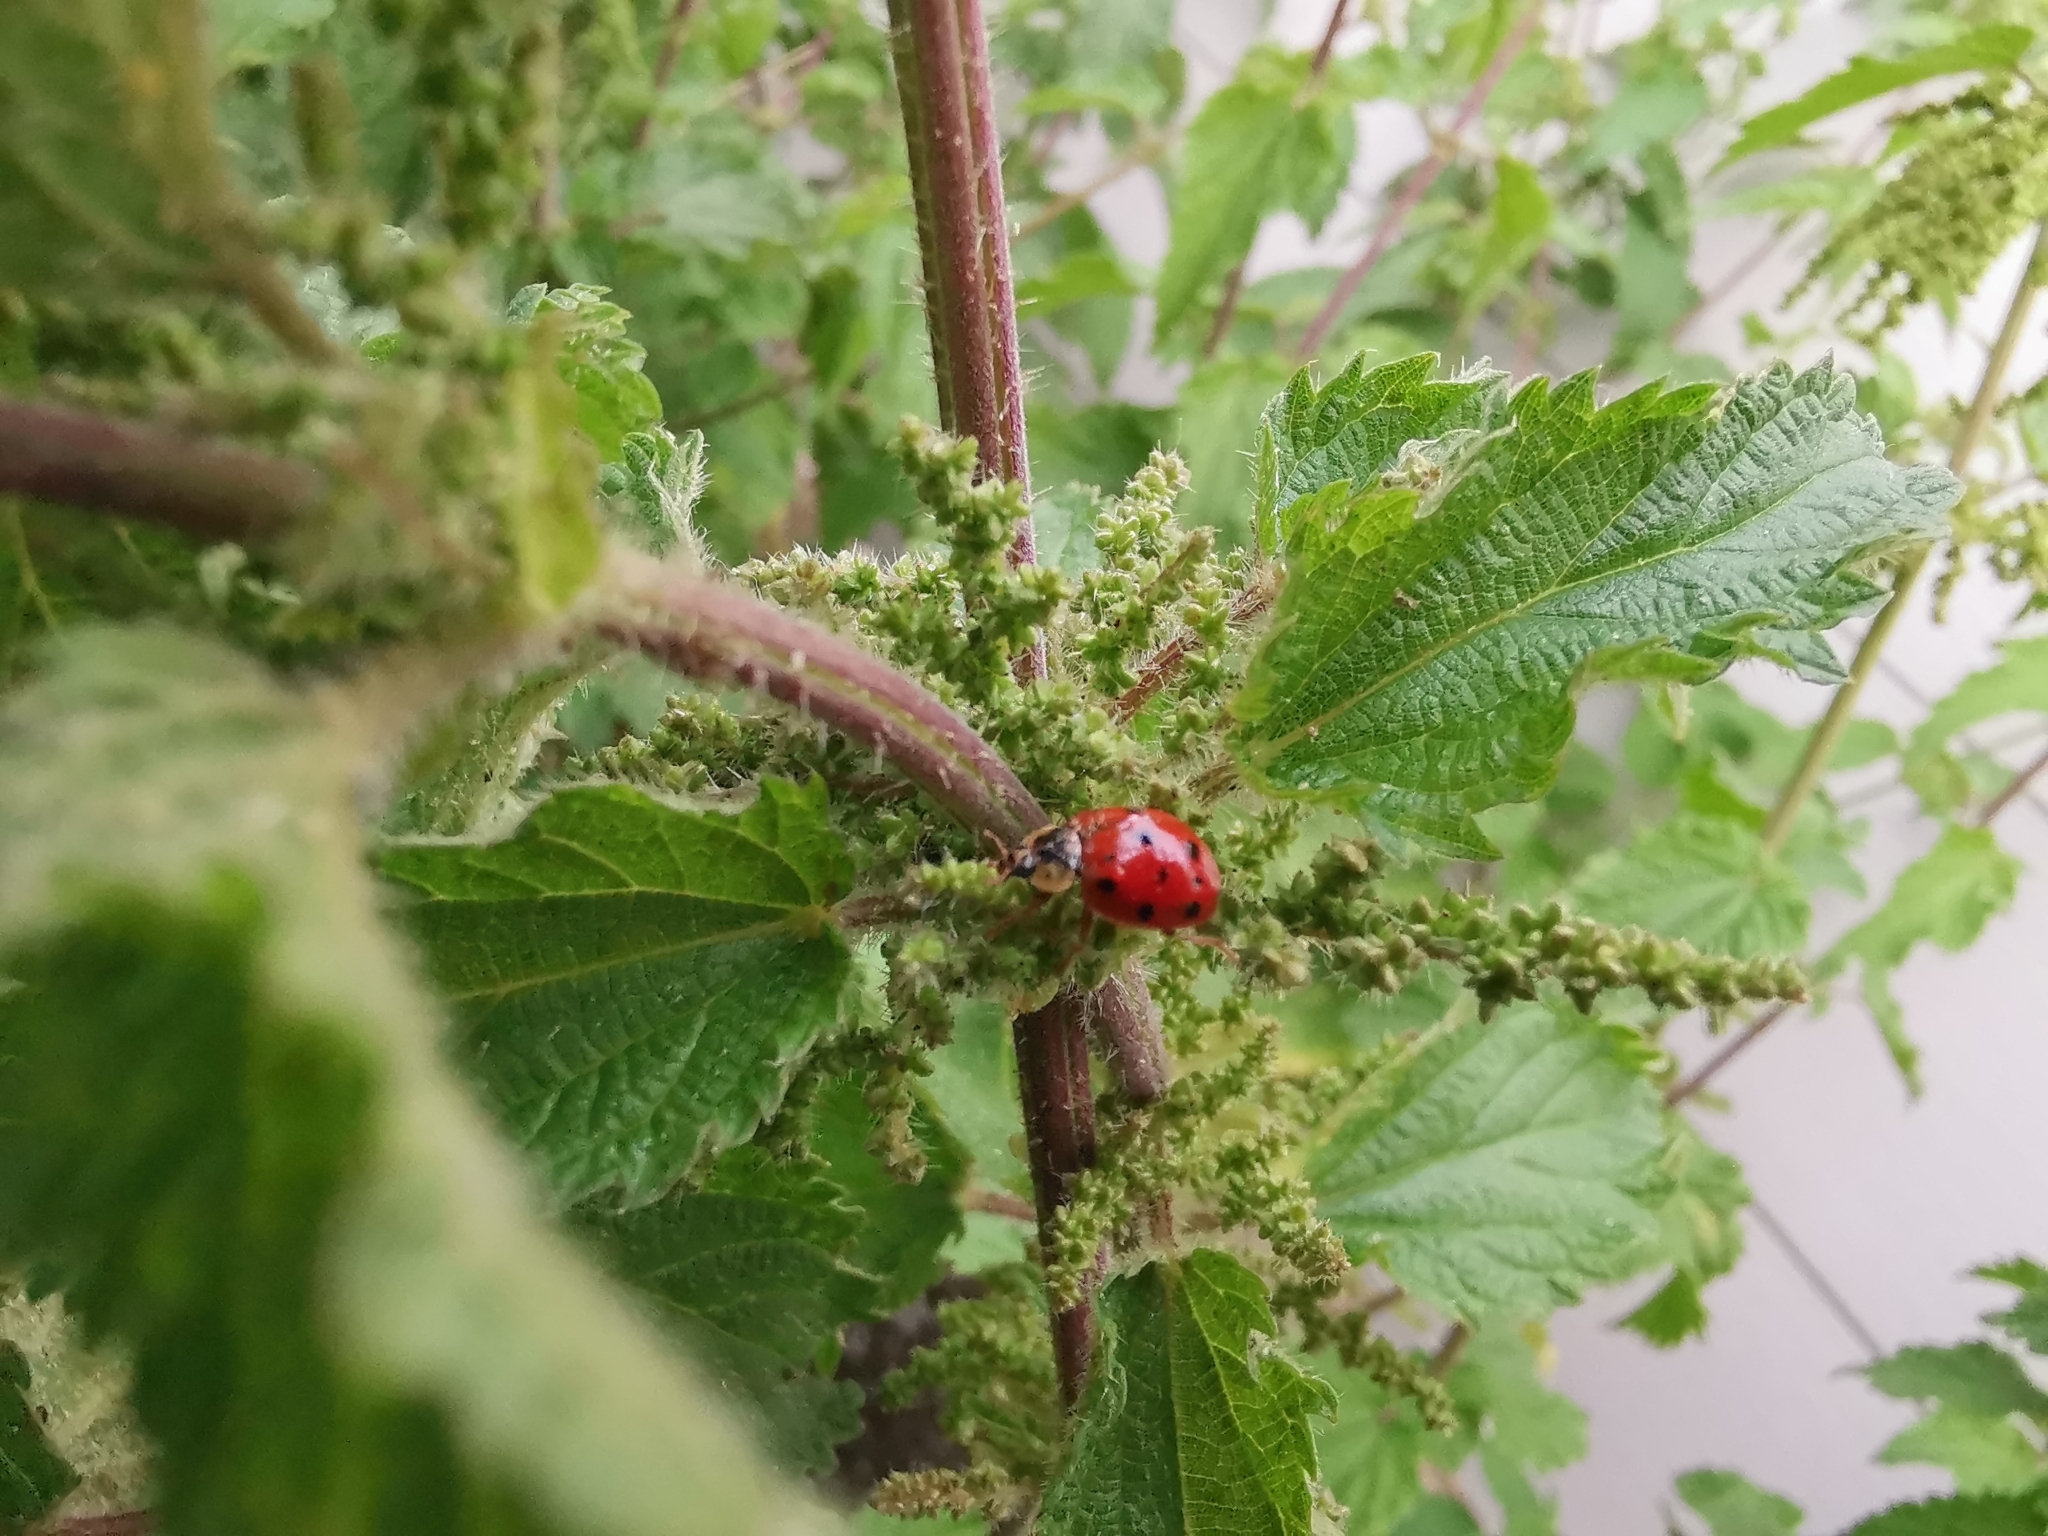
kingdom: Animalia
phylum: Arthropoda
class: Insecta
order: Coleoptera
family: Coccinellidae
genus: Harmonia
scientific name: Harmonia axyridis
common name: Harlequin ladybird
